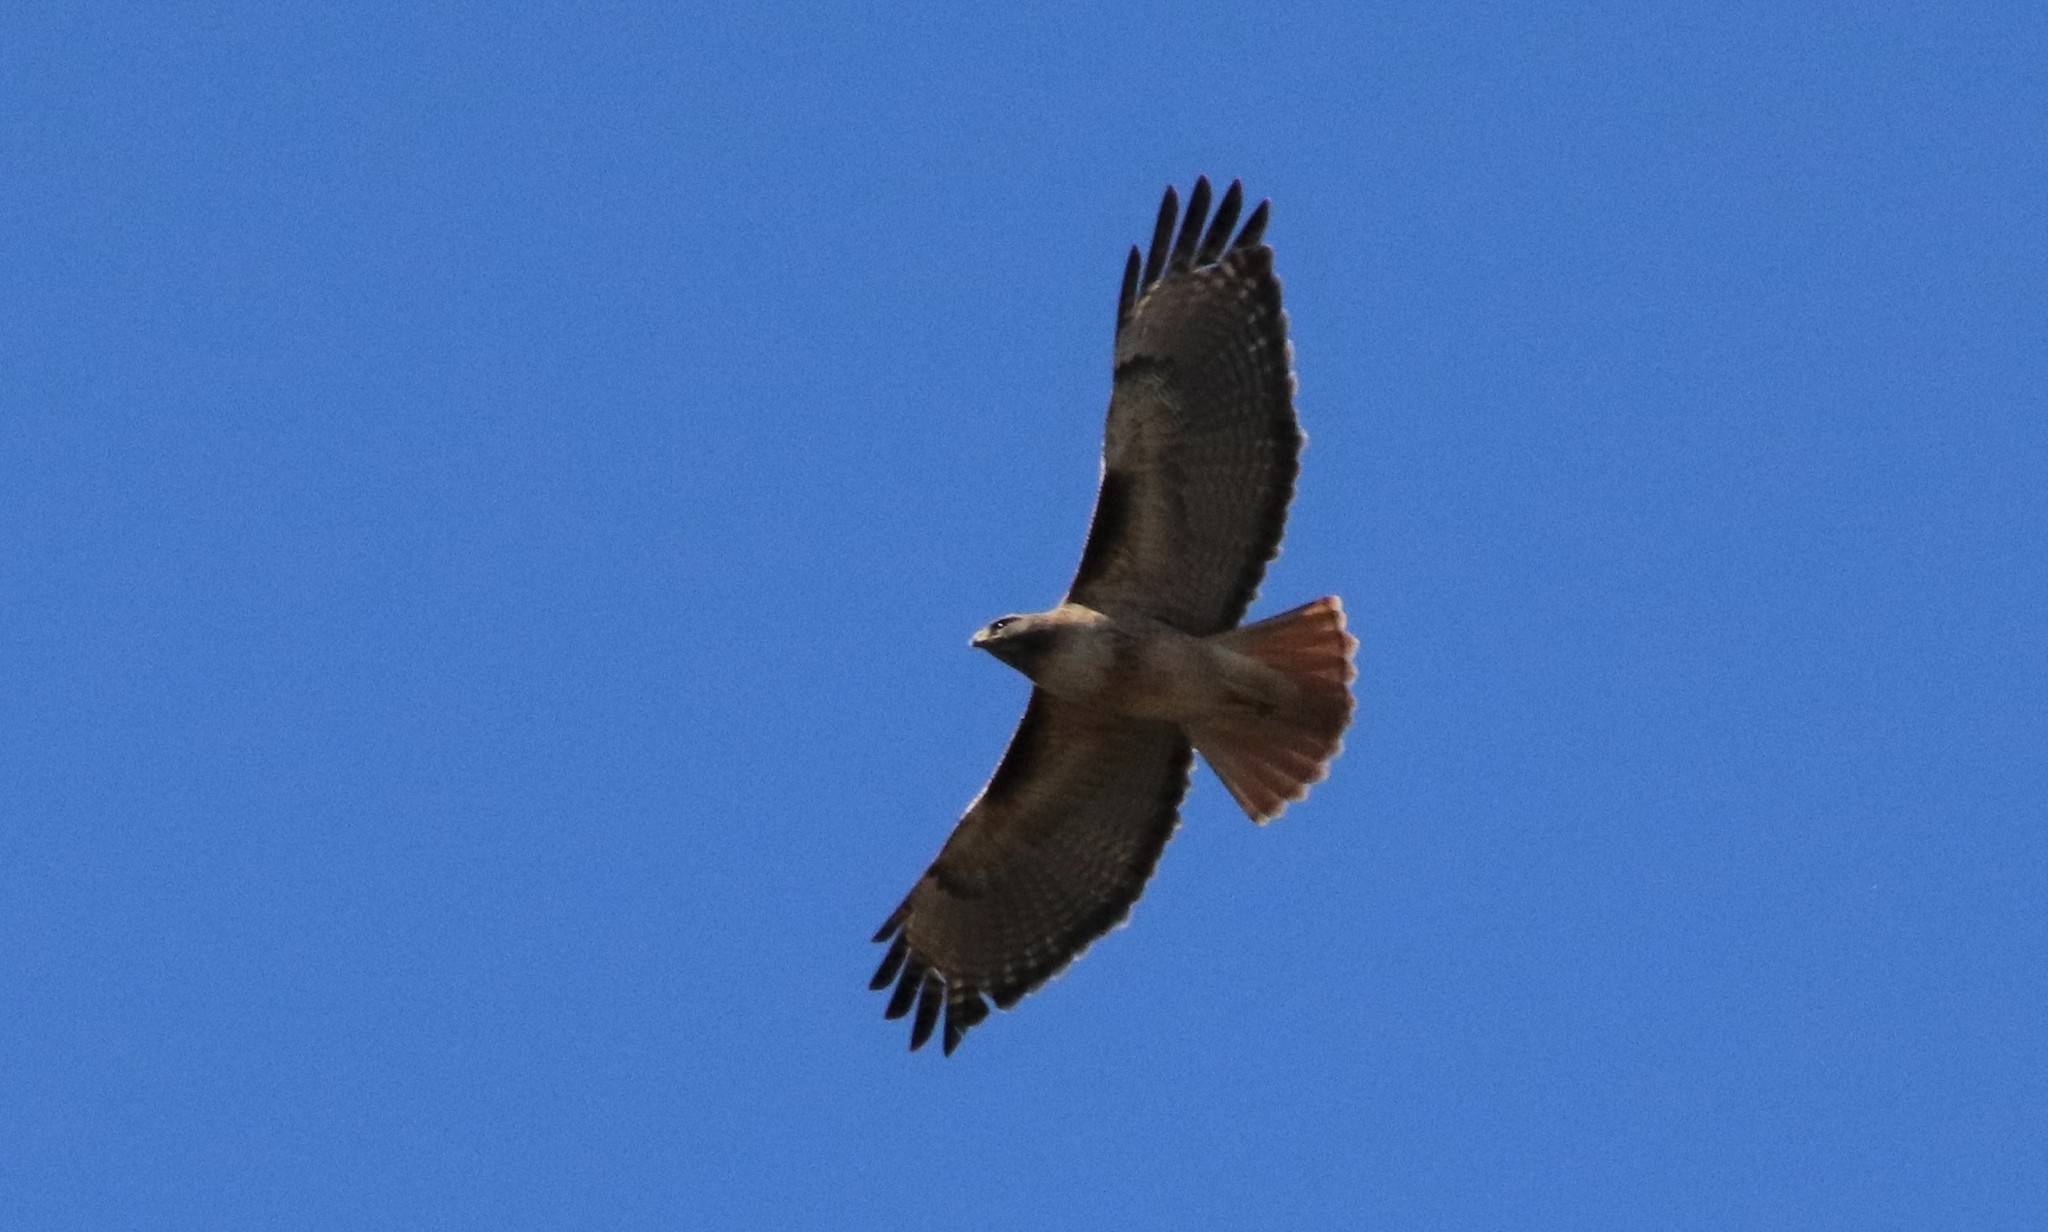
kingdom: Animalia
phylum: Chordata
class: Aves
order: Accipitriformes
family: Accipitridae
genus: Buteo
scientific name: Buteo jamaicensis
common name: Red-tailed hawk
